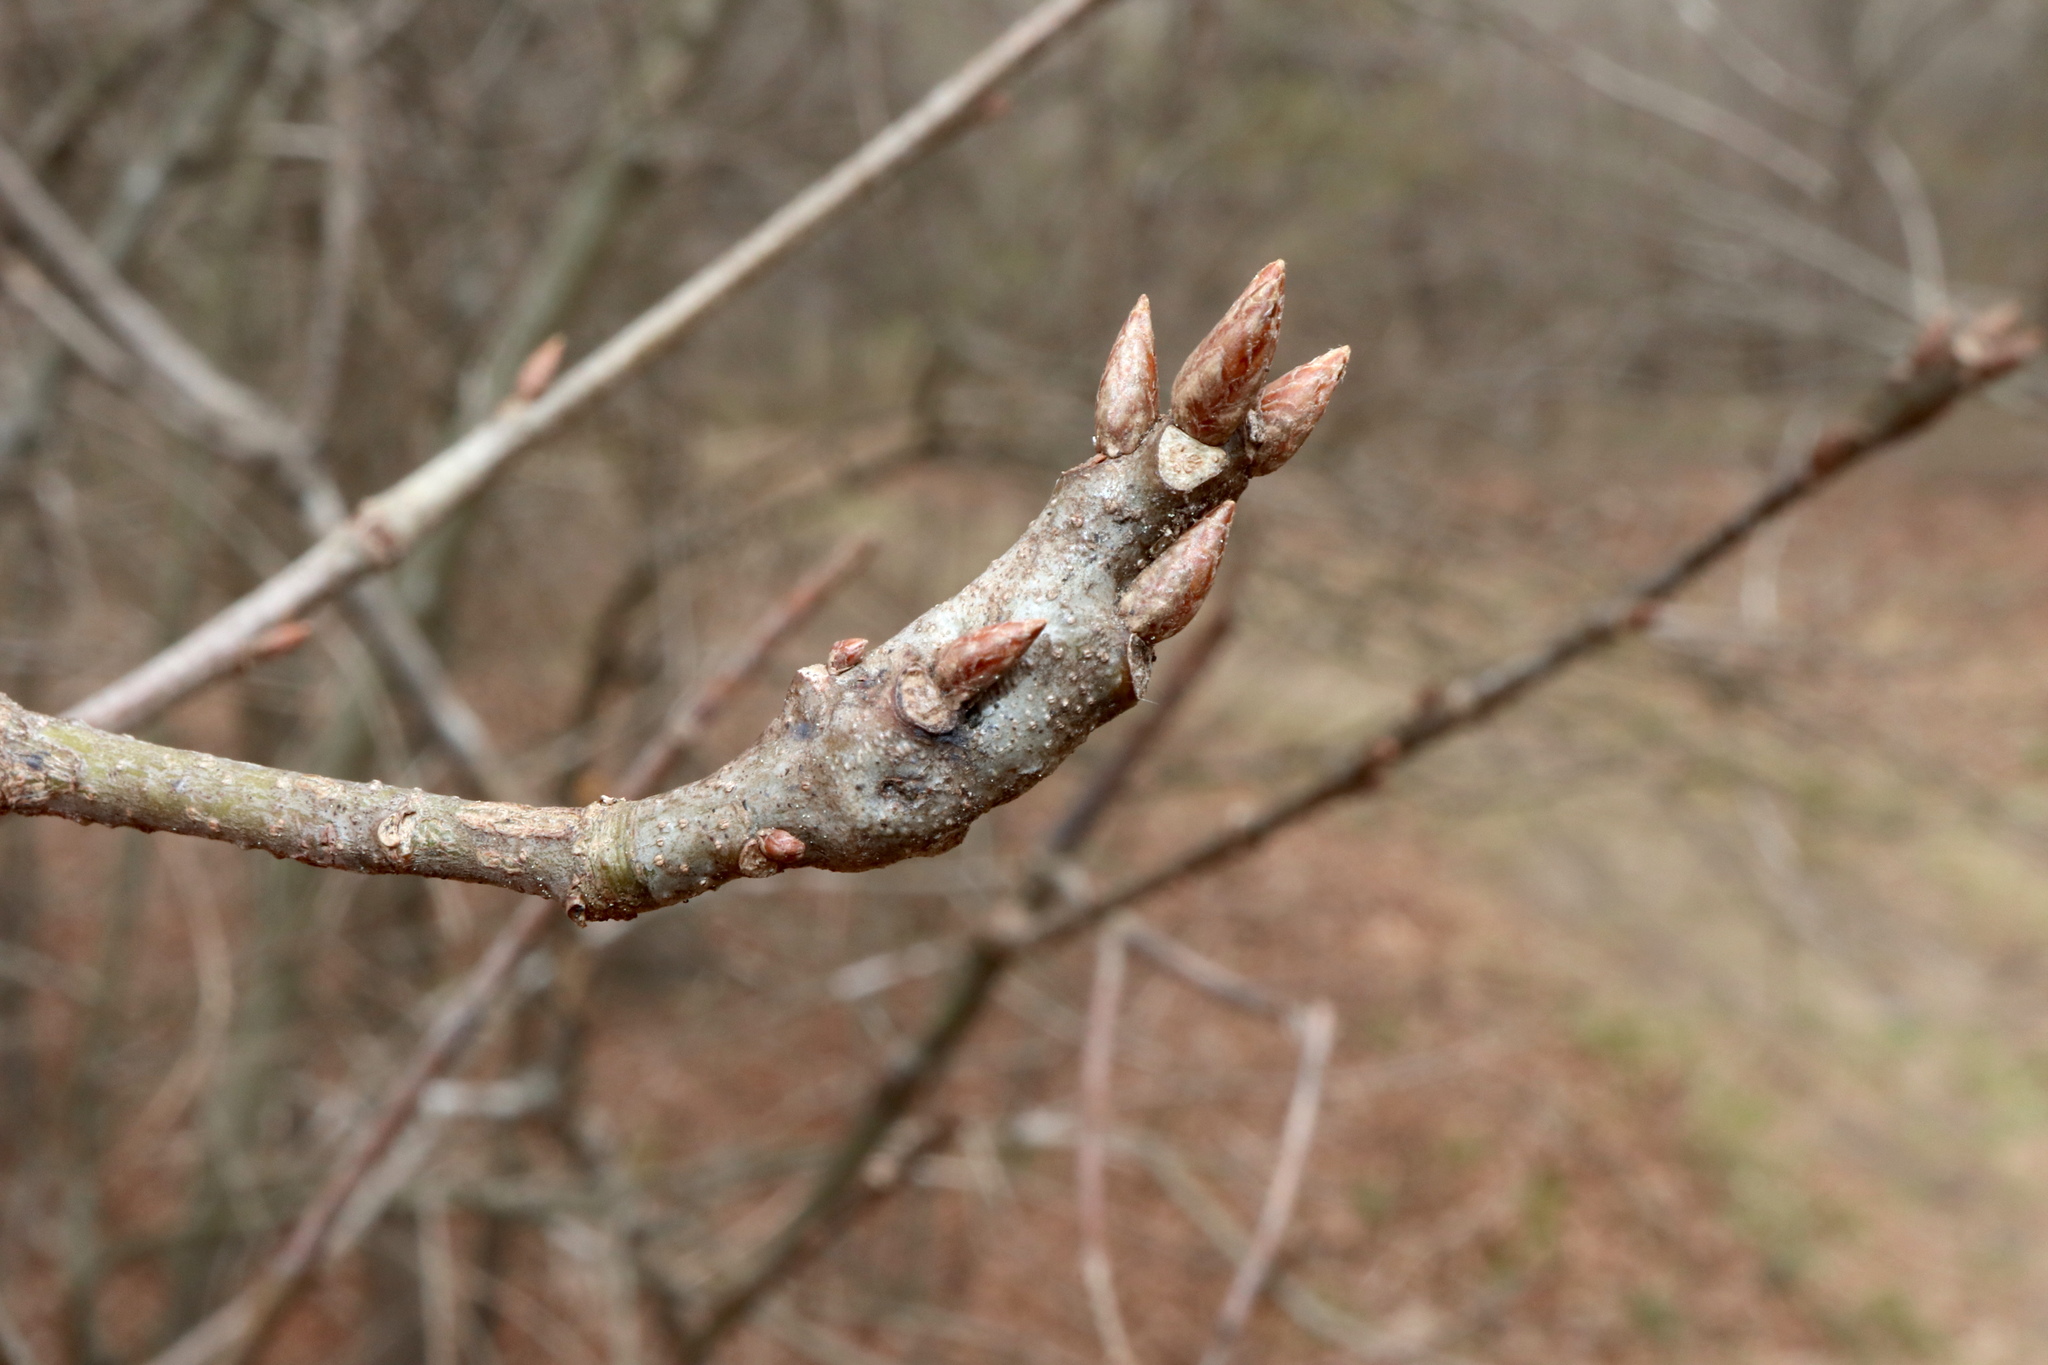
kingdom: Animalia
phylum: Arthropoda
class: Insecta
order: Hymenoptera
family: Cynipidae
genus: Andricus
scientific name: Andricus conificus
